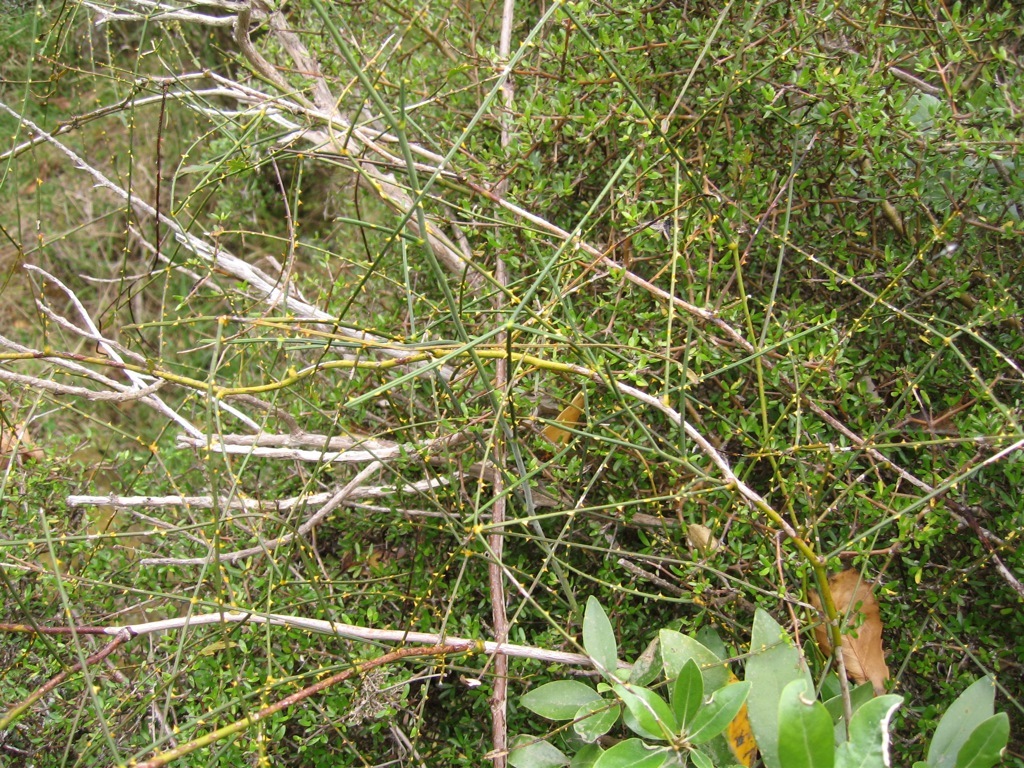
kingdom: Plantae
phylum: Tracheophyta
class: Magnoliopsida
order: Rosales
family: Rosaceae
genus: Rubus
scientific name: Rubus squarrosus
